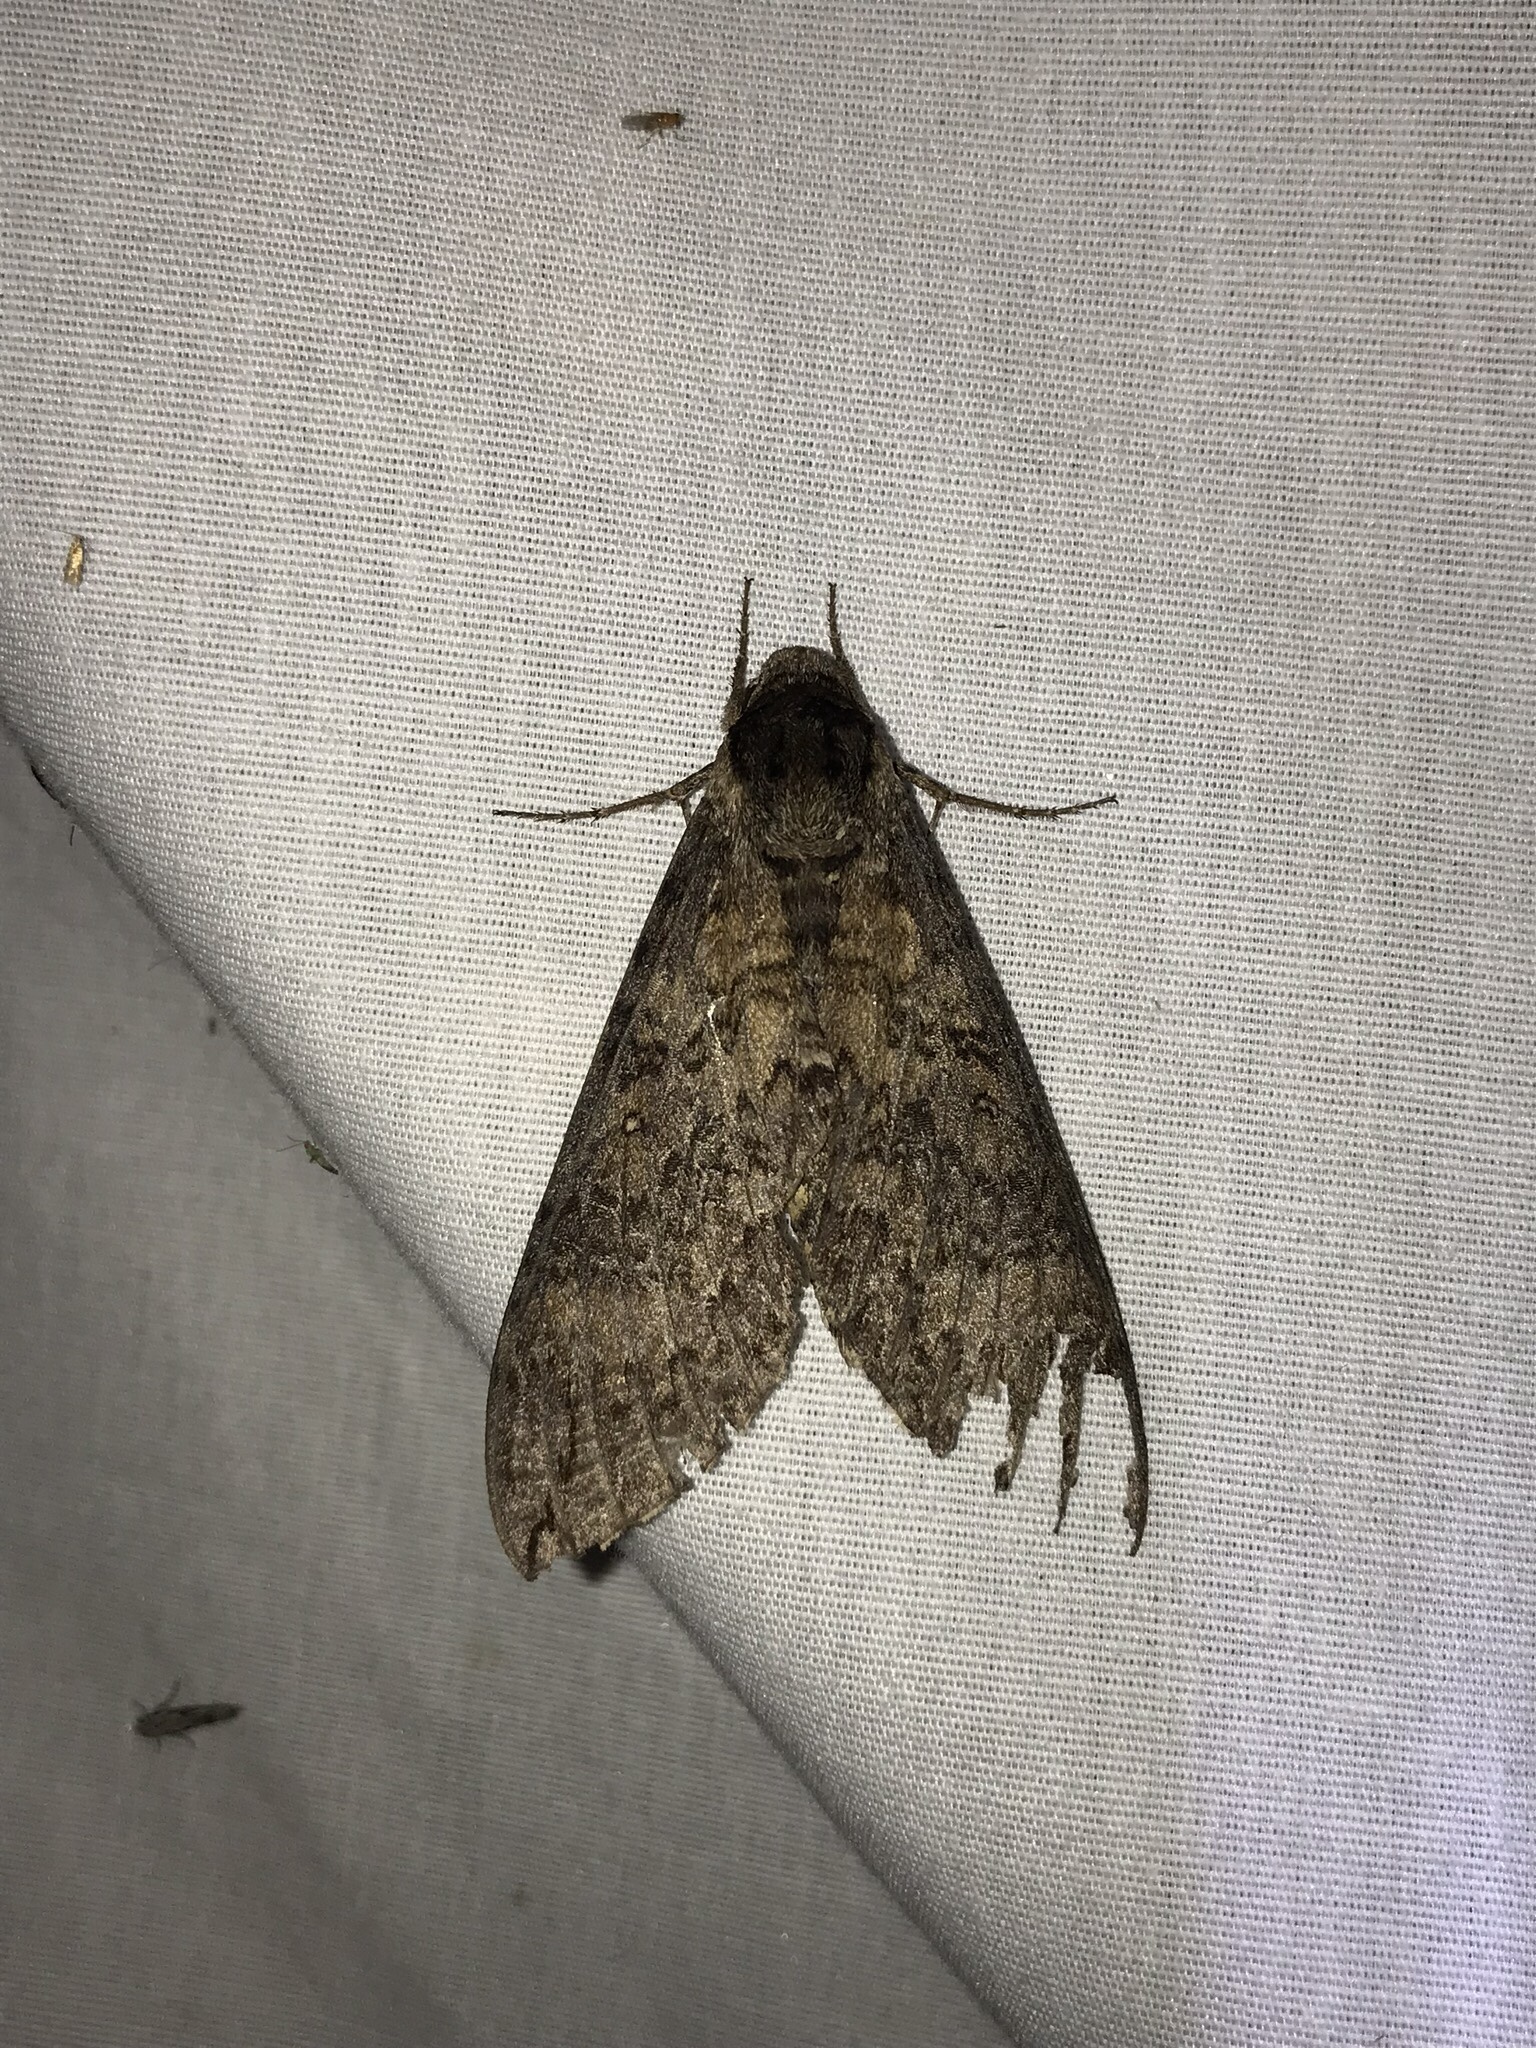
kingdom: Animalia
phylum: Arthropoda
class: Insecta
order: Lepidoptera
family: Sphingidae
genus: Manduca
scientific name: Manduca occulta
